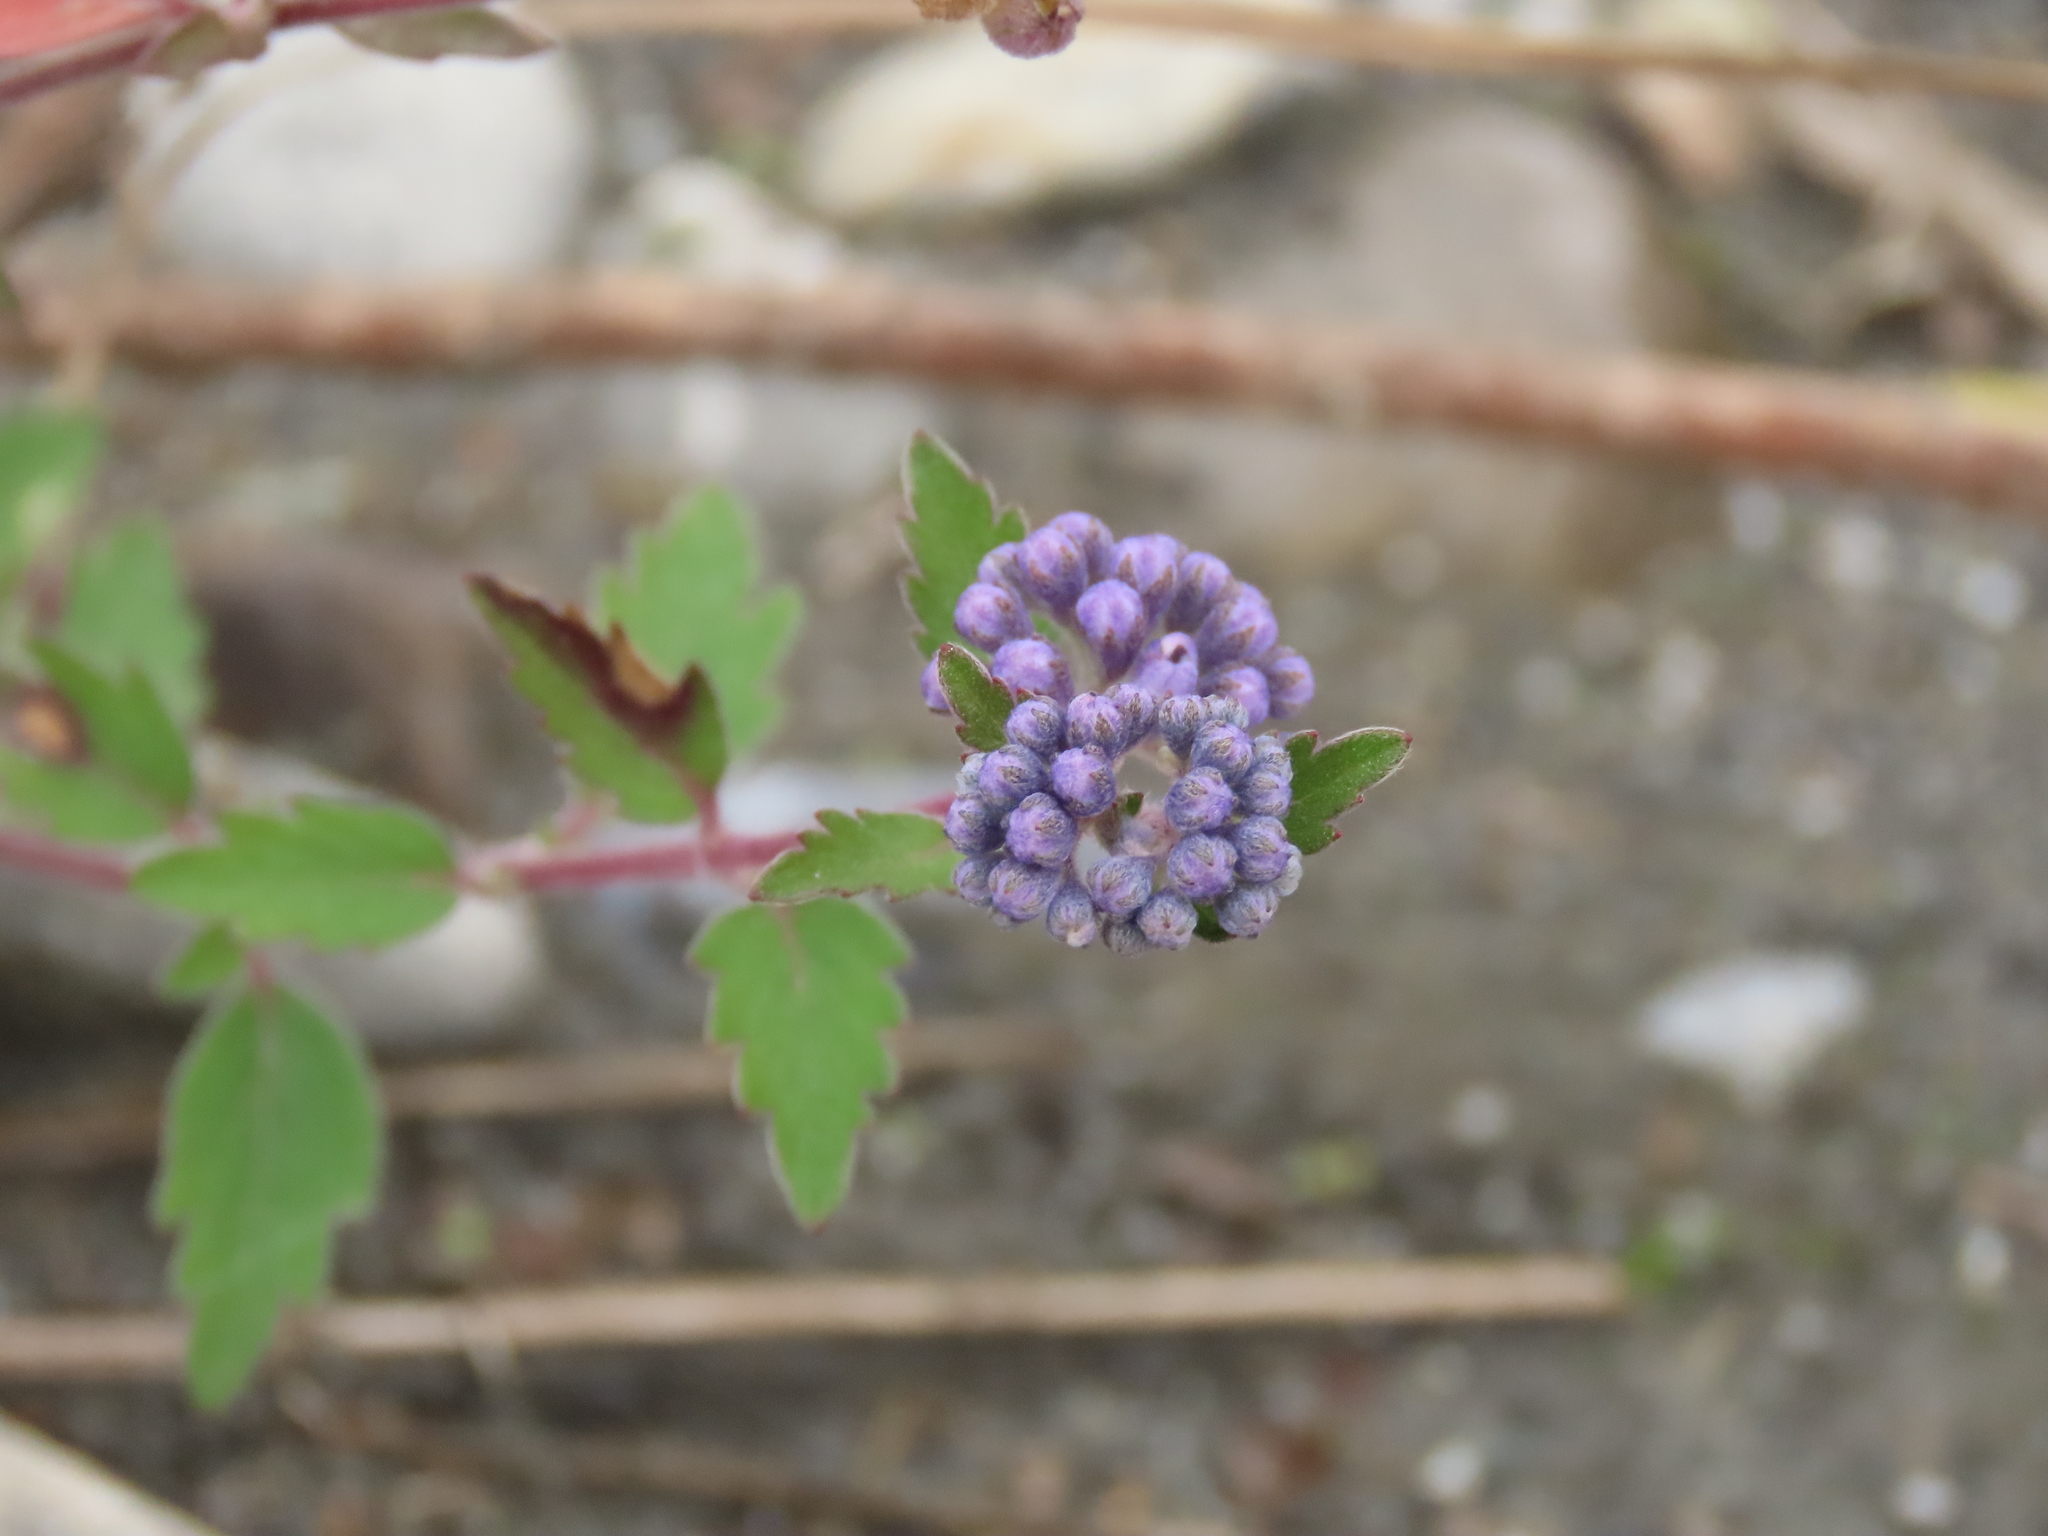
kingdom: Plantae
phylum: Tracheophyta
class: Magnoliopsida
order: Lamiales
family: Lamiaceae
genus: Caryopteris
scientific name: Caryopteris incana
